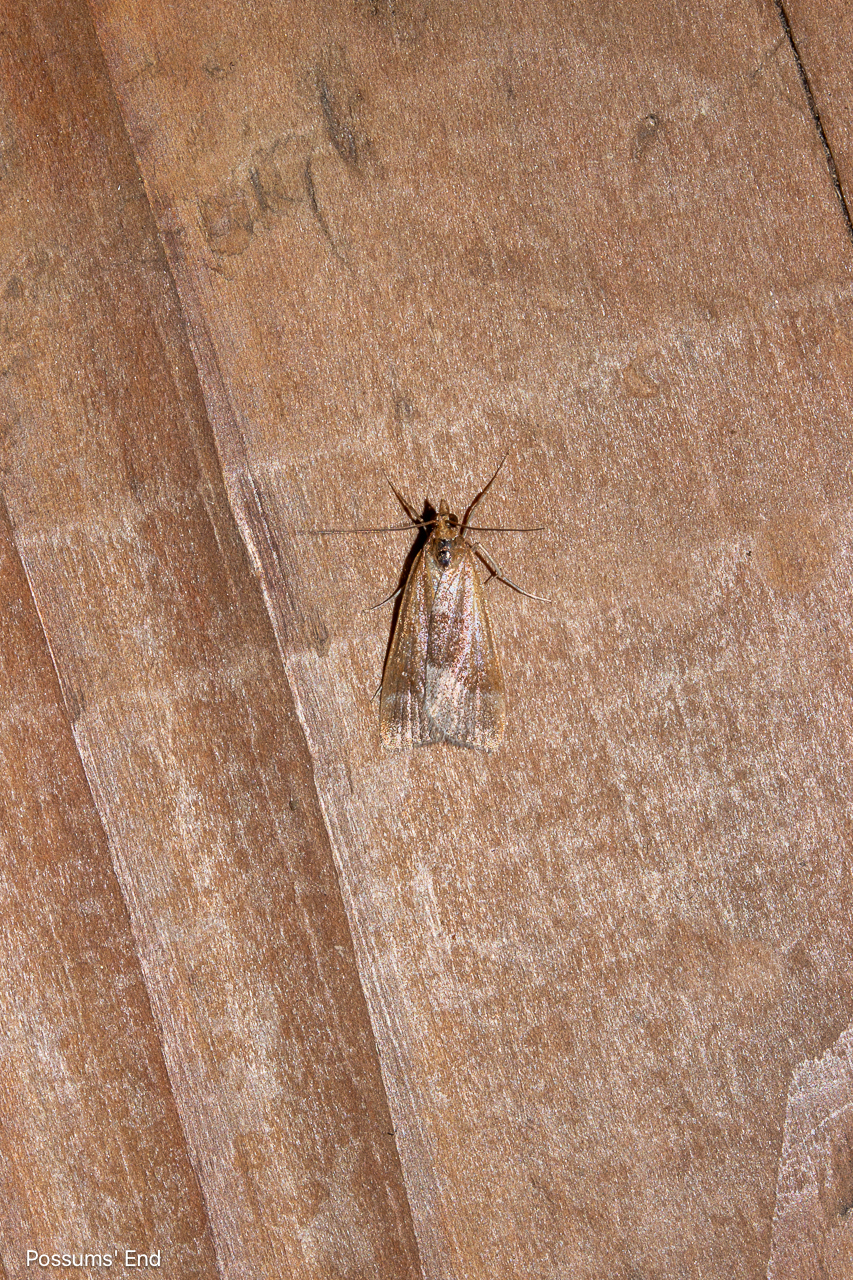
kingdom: Animalia
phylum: Arthropoda
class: Insecta
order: Lepidoptera
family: Crambidae
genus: Eudonia
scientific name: Eudonia feredayi
